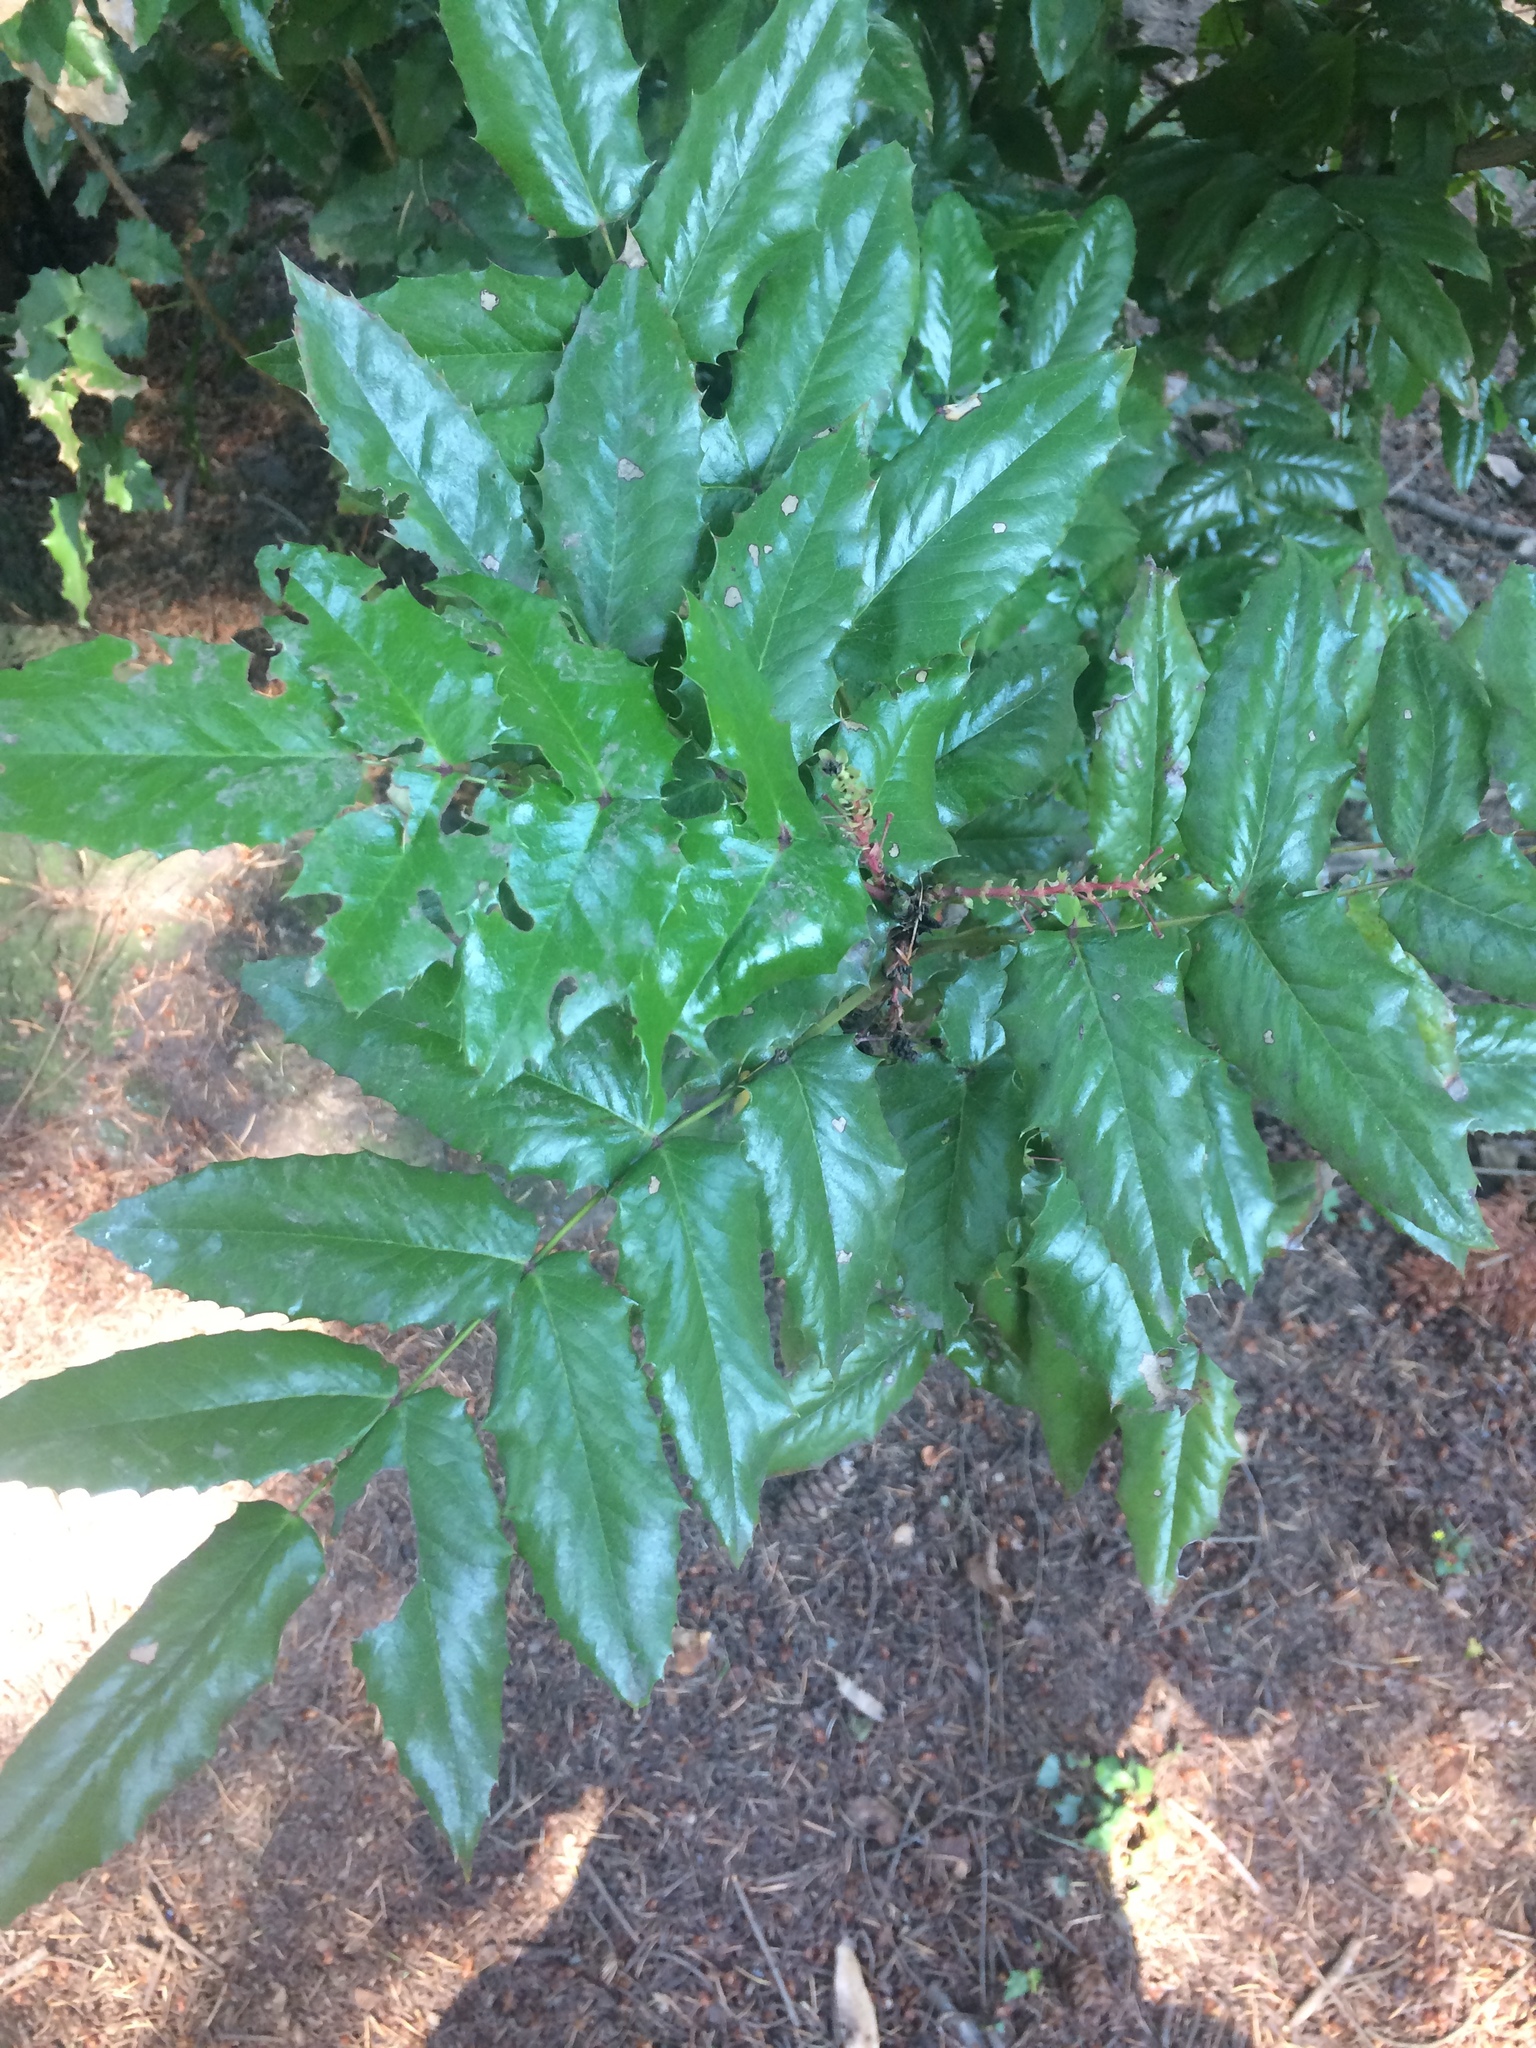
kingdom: Plantae
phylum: Tracheophyta
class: Magnoliopsida
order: Ranunculales
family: Berberidaceae
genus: Mahonia
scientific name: Mahonia aquifolium
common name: Oregon-grape
